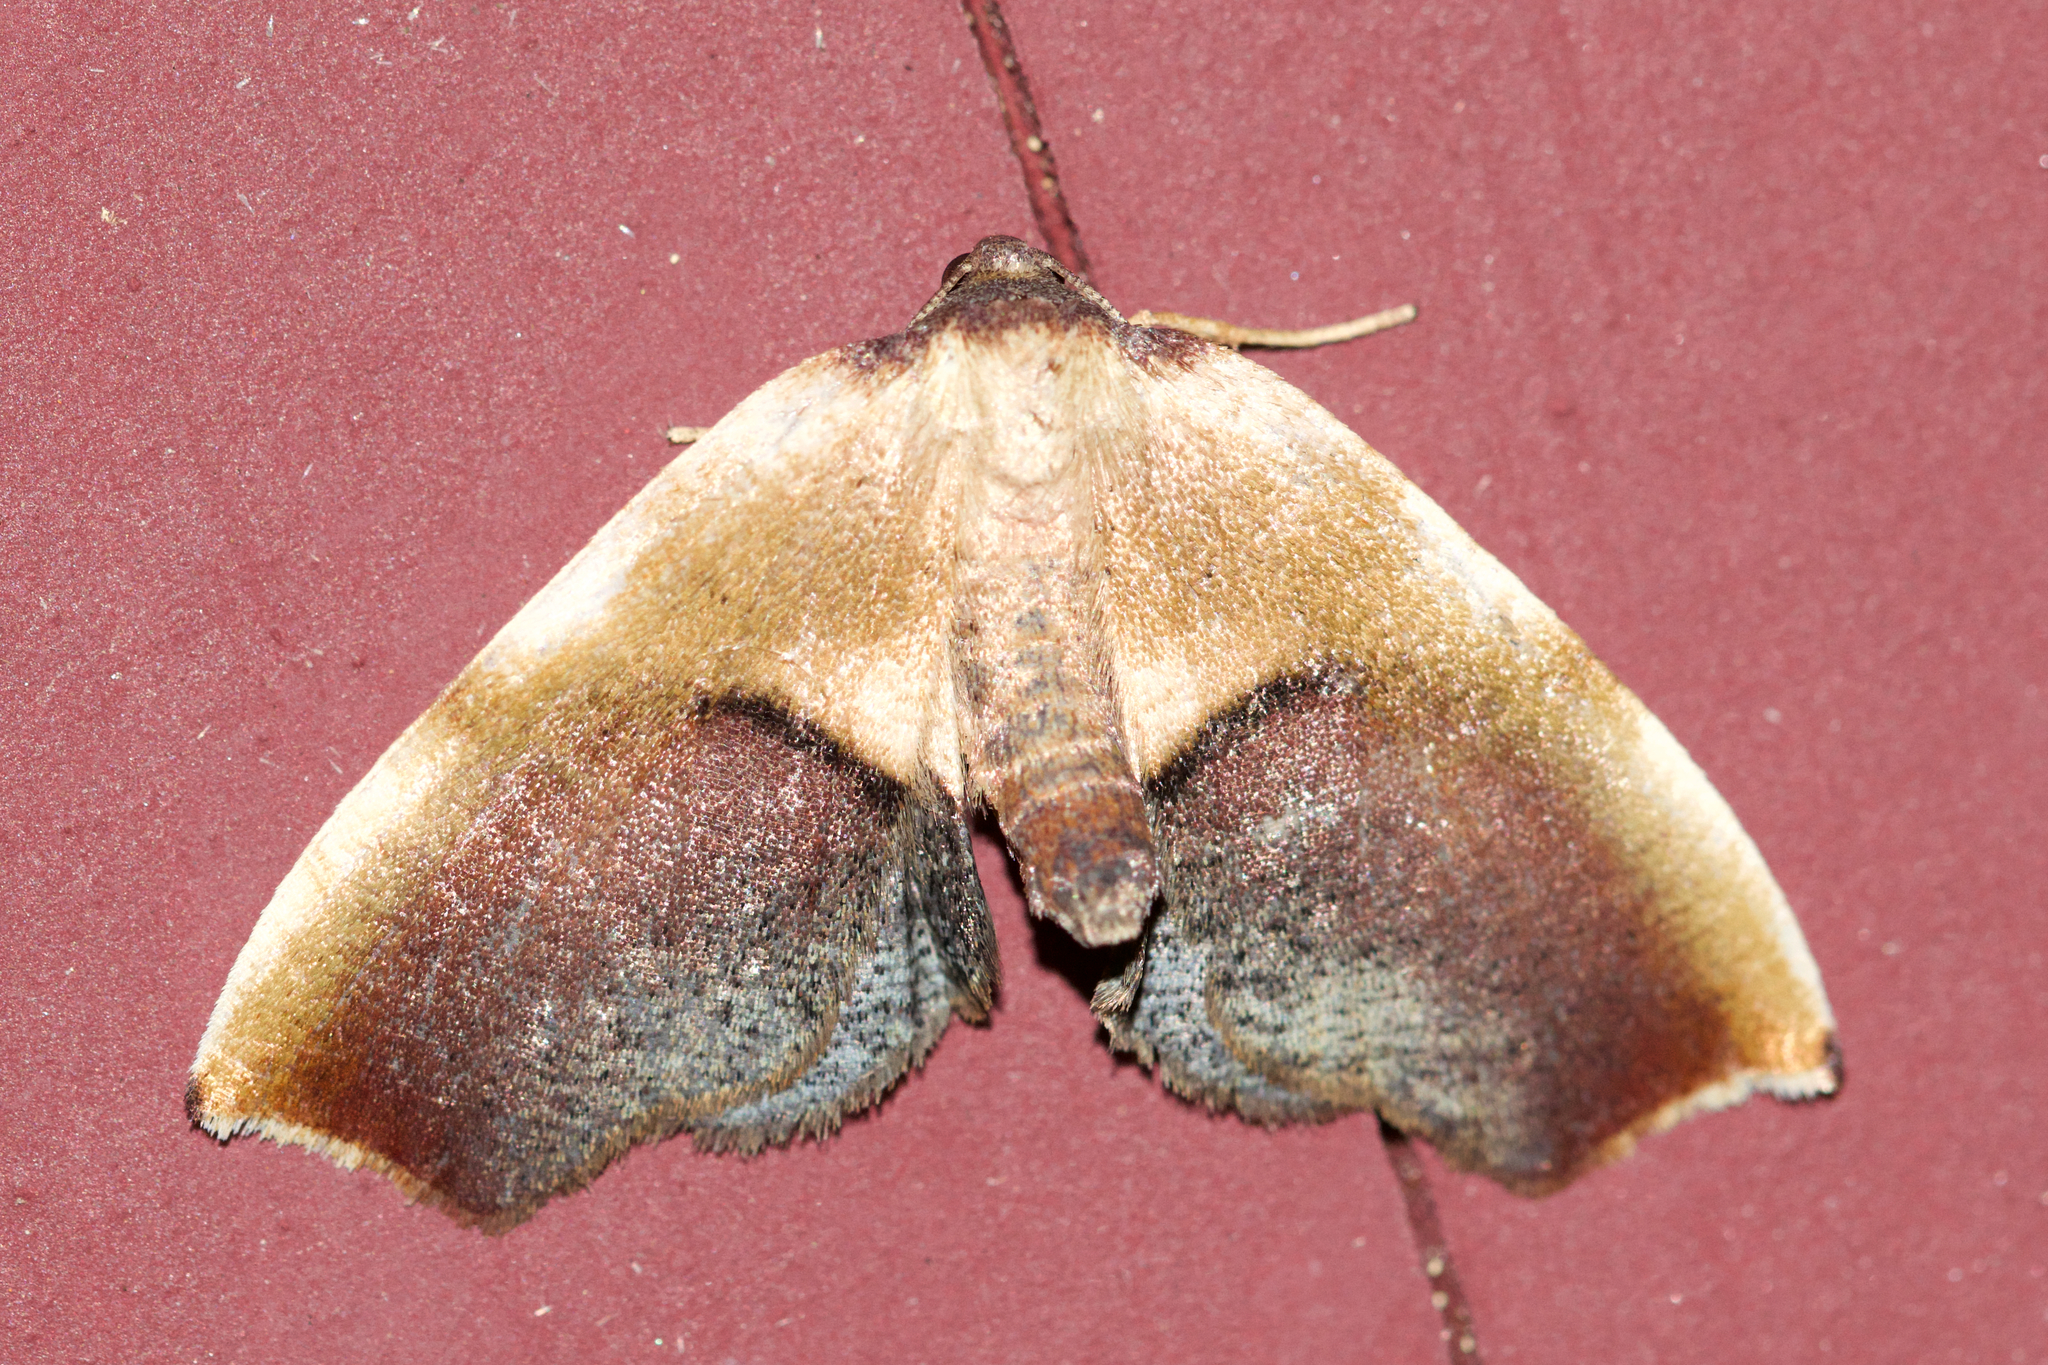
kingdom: Animalia
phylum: Arthropoda
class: Insecta
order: Lepidoptera
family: Geometridae
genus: Plagodis
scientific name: Plagodis kuetzingi
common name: Purple plagodis
